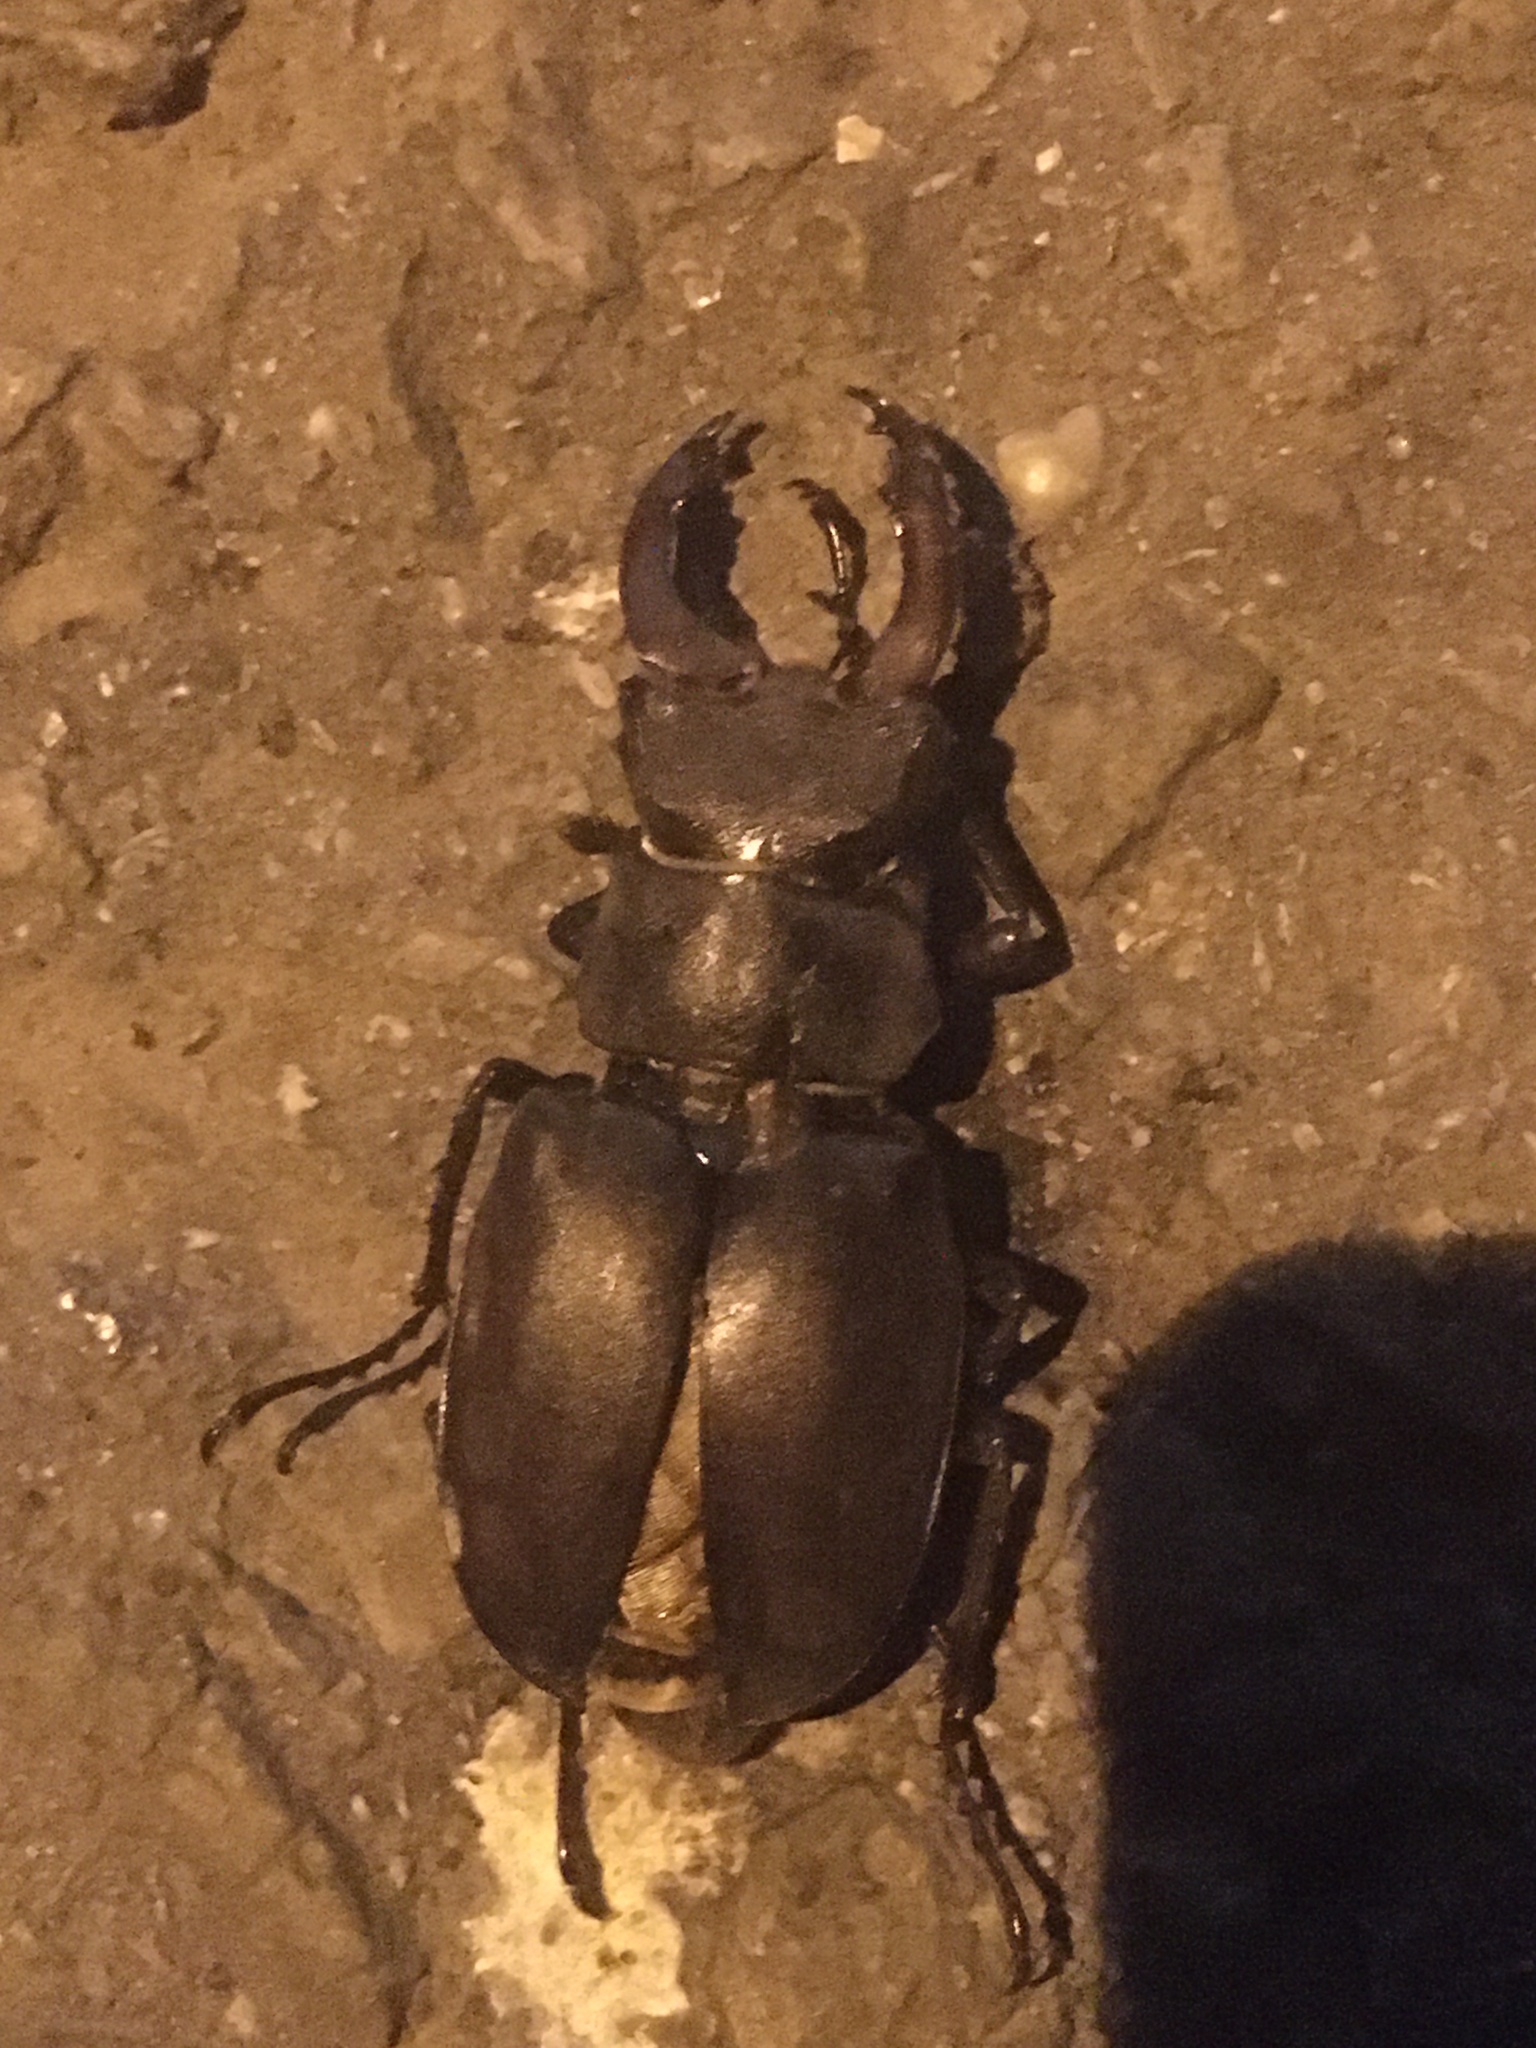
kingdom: Animalia
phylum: Arthropoda
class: Insecta
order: Coleoptera
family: Lucanidae
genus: Lucanus
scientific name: Lucanus cervus
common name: Stag beetle
